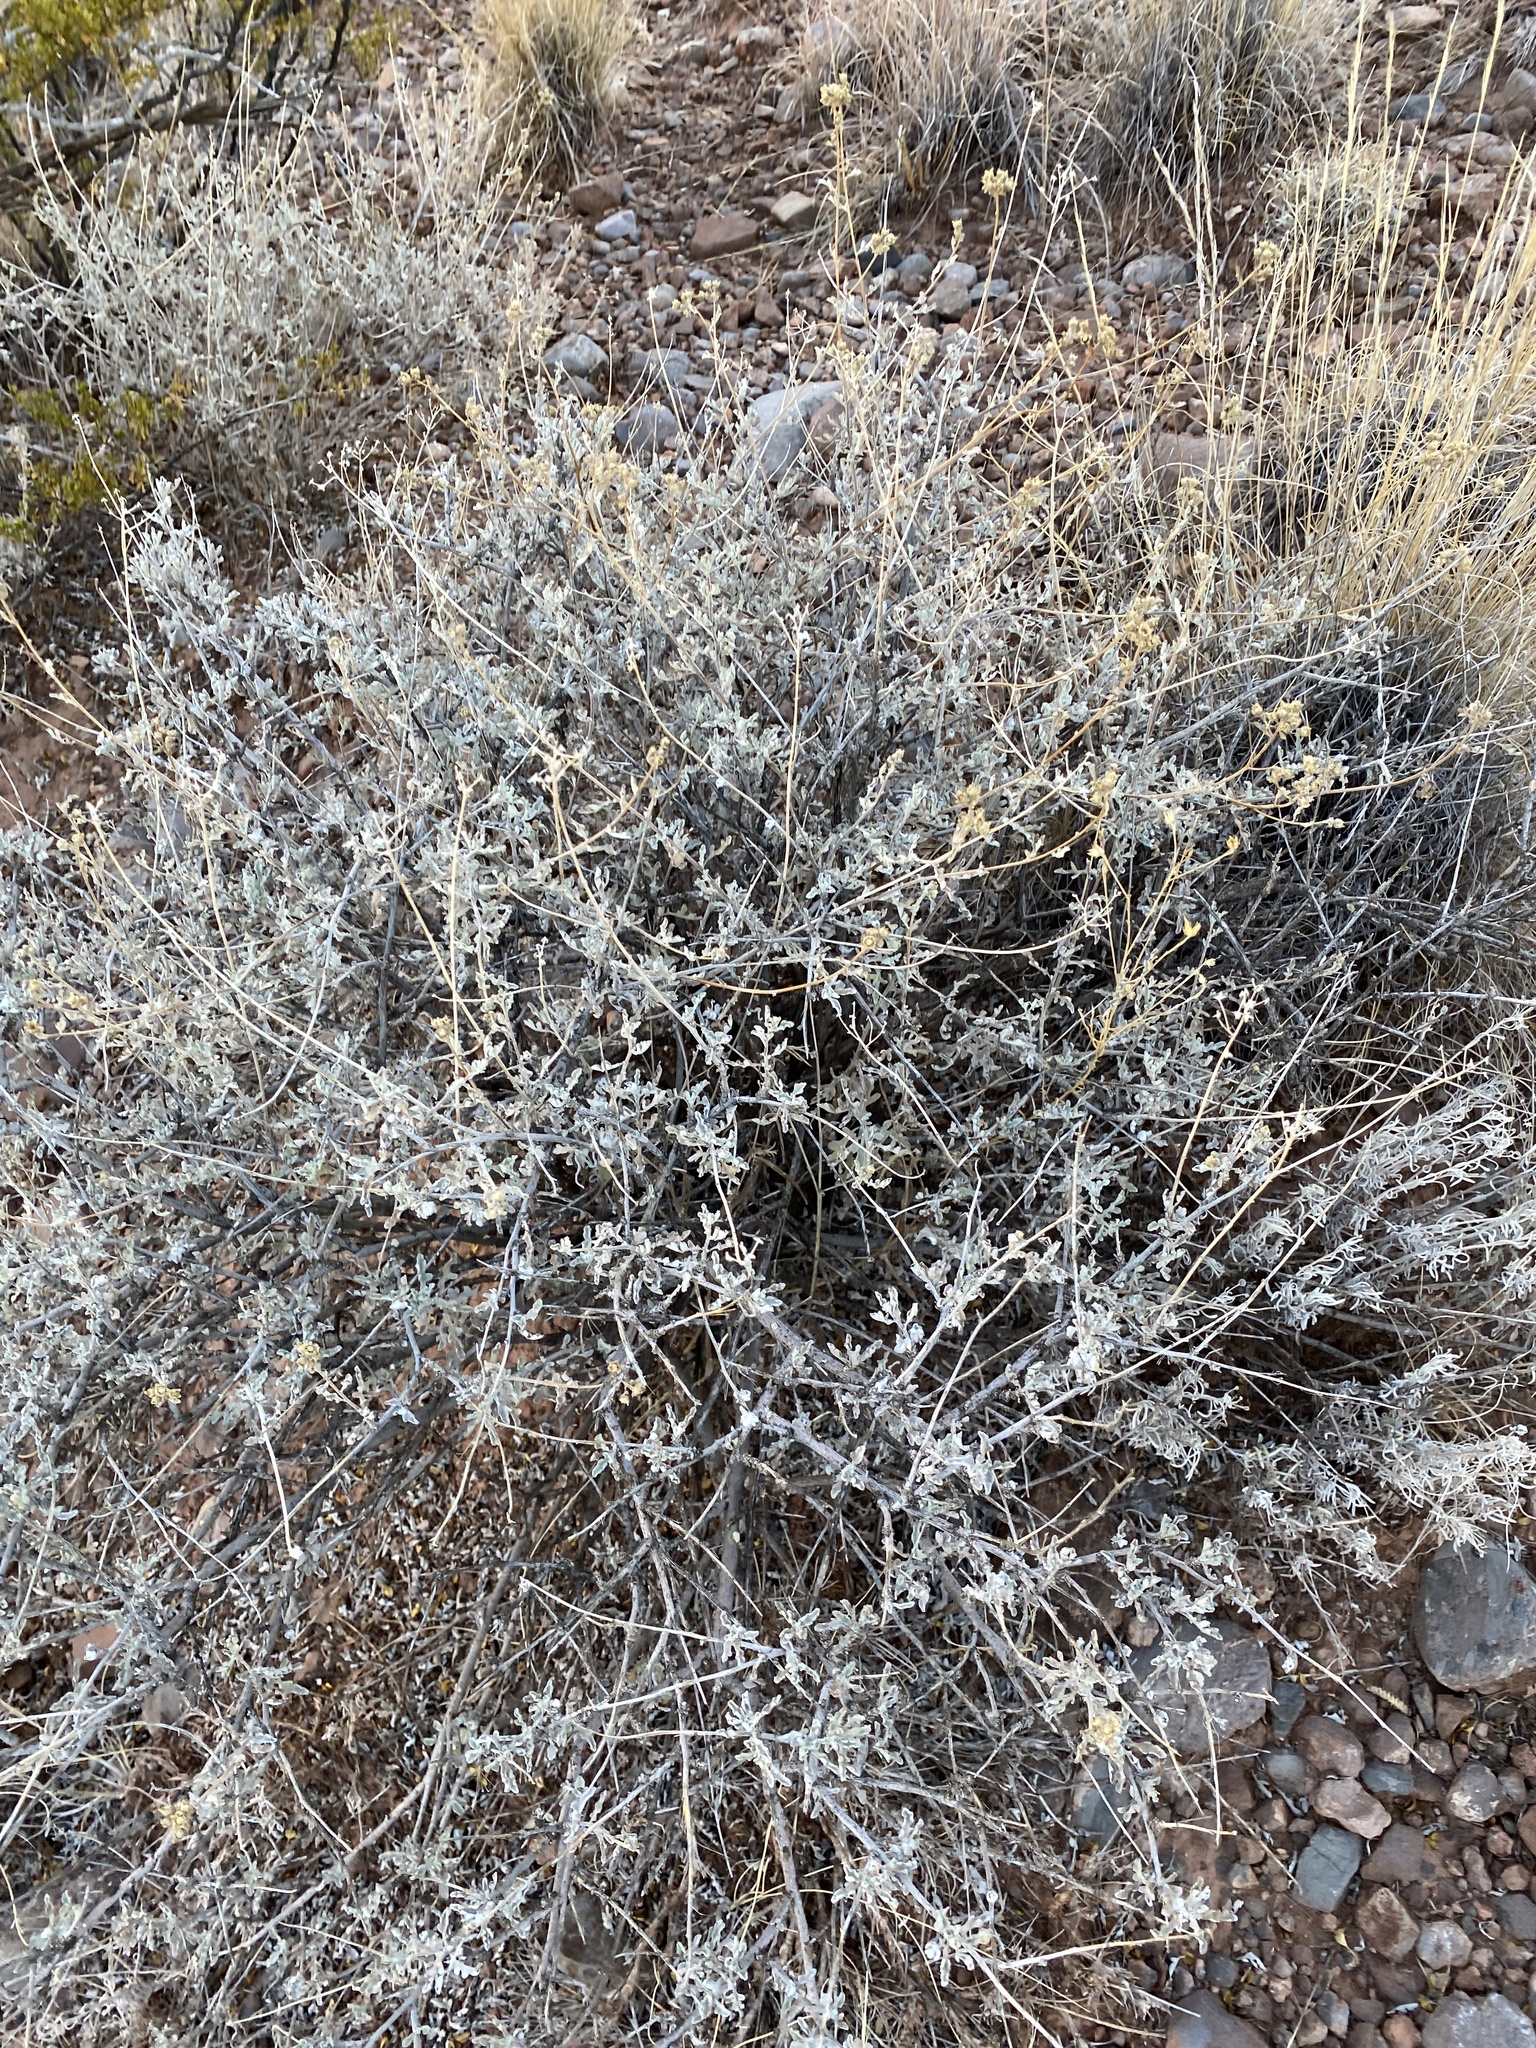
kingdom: Plantae
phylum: Tracheophyta
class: Magnoliopsida
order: Asterales
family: Asteraceae
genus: Parthenium
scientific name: Parthenium incanum
